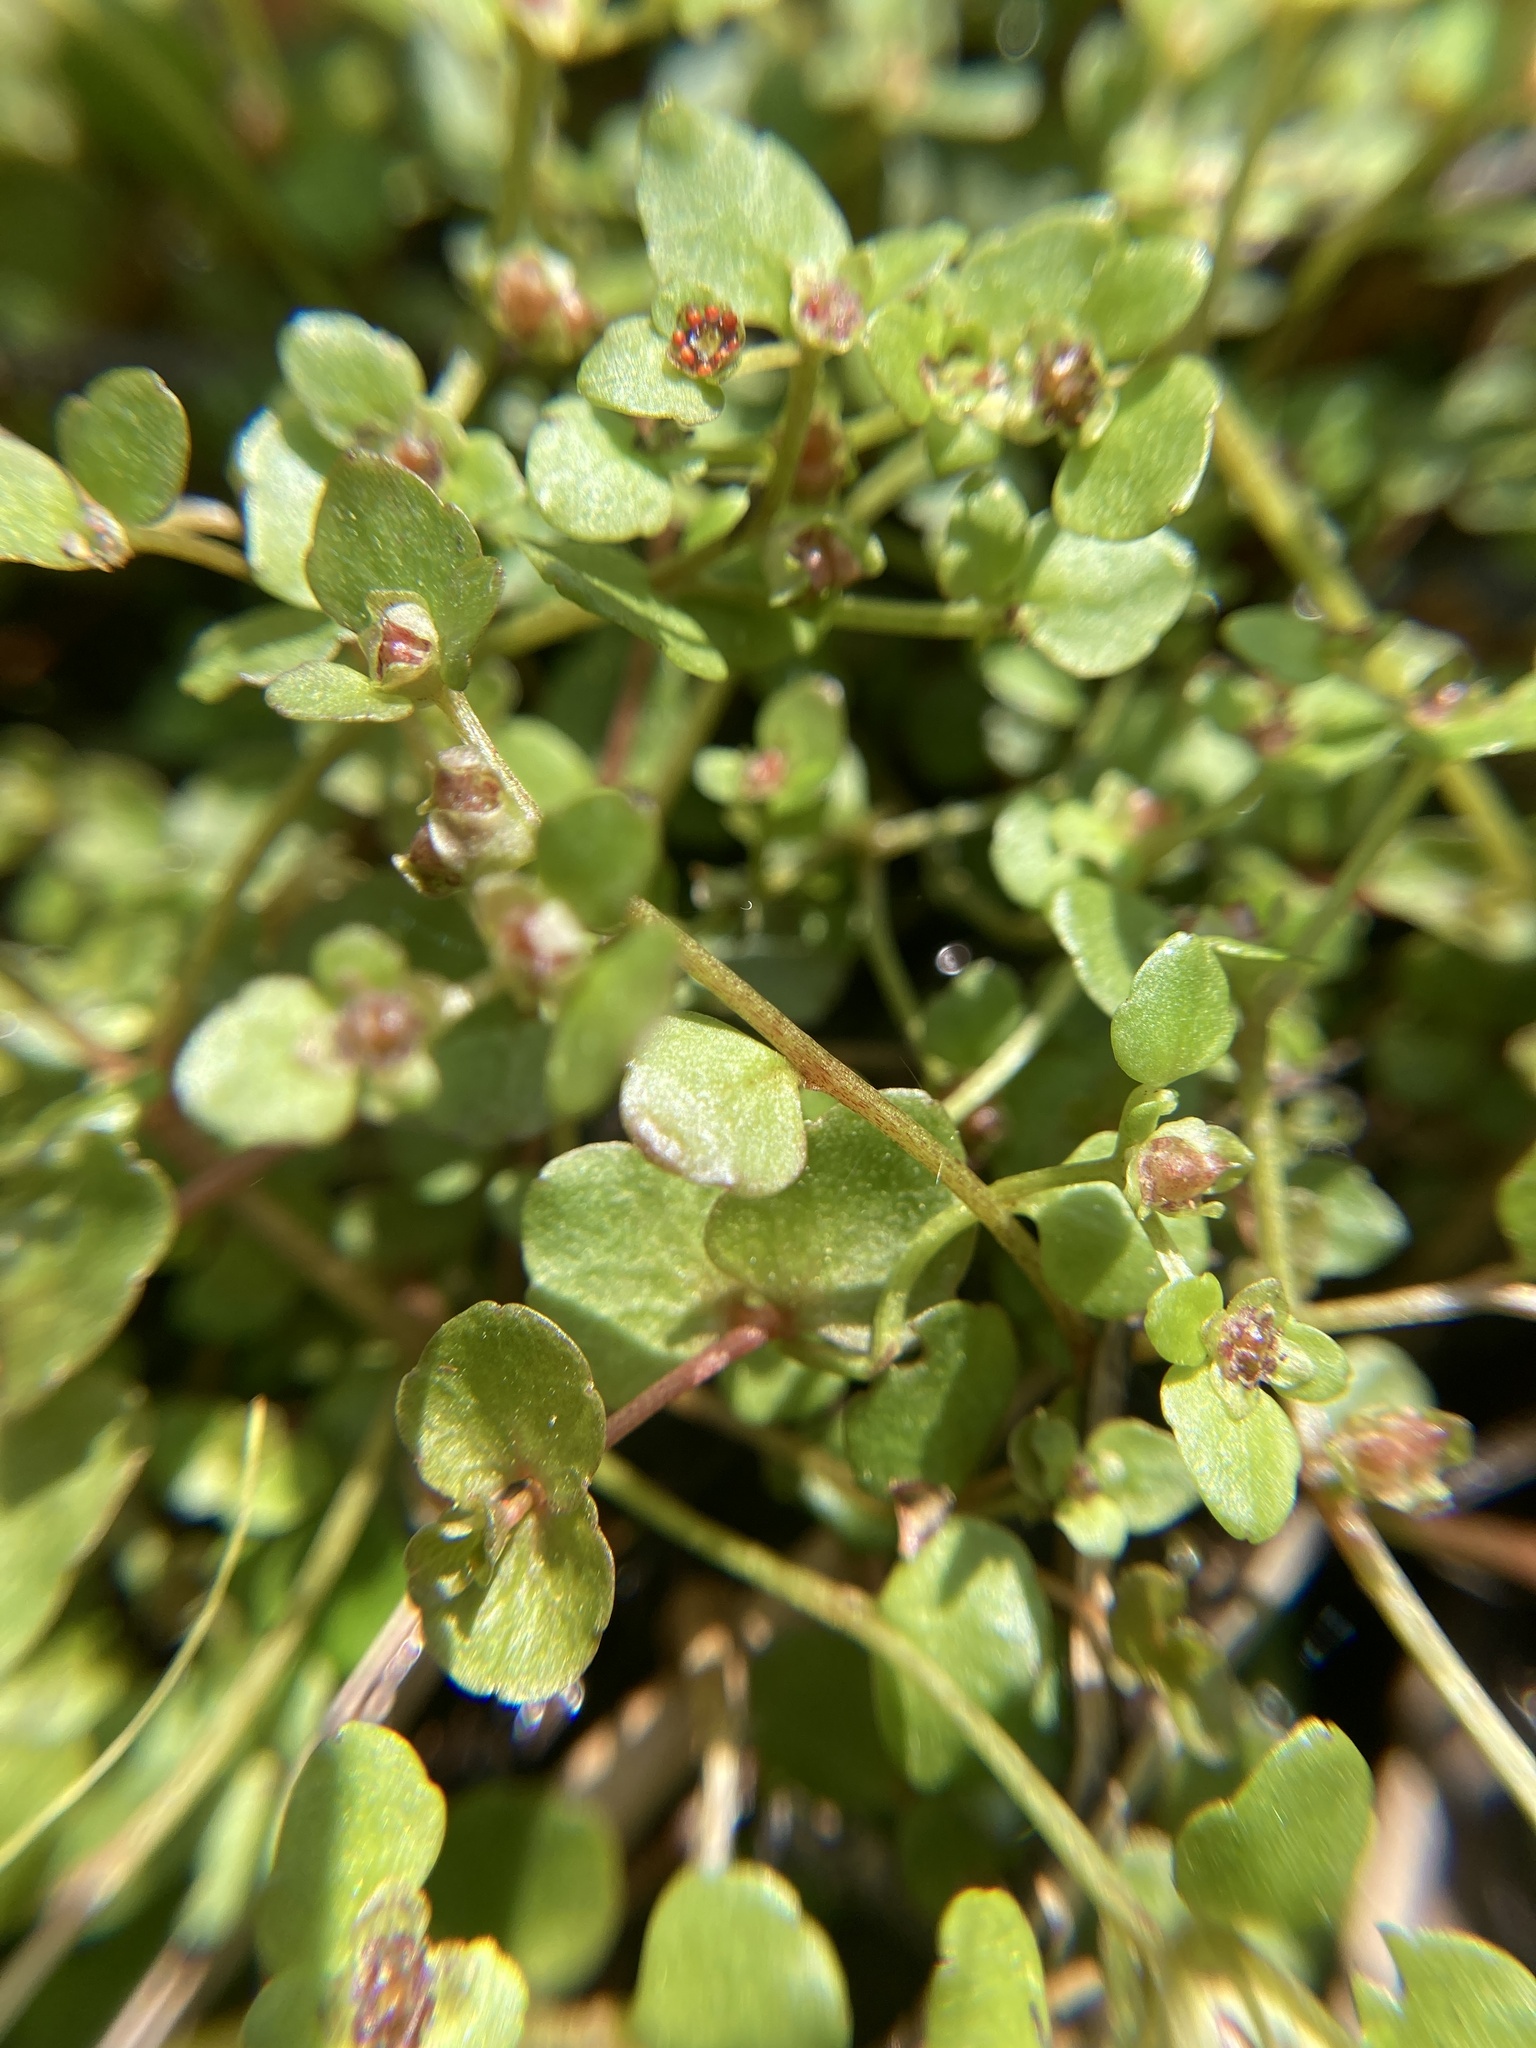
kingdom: Plantae
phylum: Tracheophyta
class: Magnoliopsida
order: Saxifragales
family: Saxifragaceae
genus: Chrysosplenium
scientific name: Chrysosplenium americanum
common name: American golden-saxifrage
